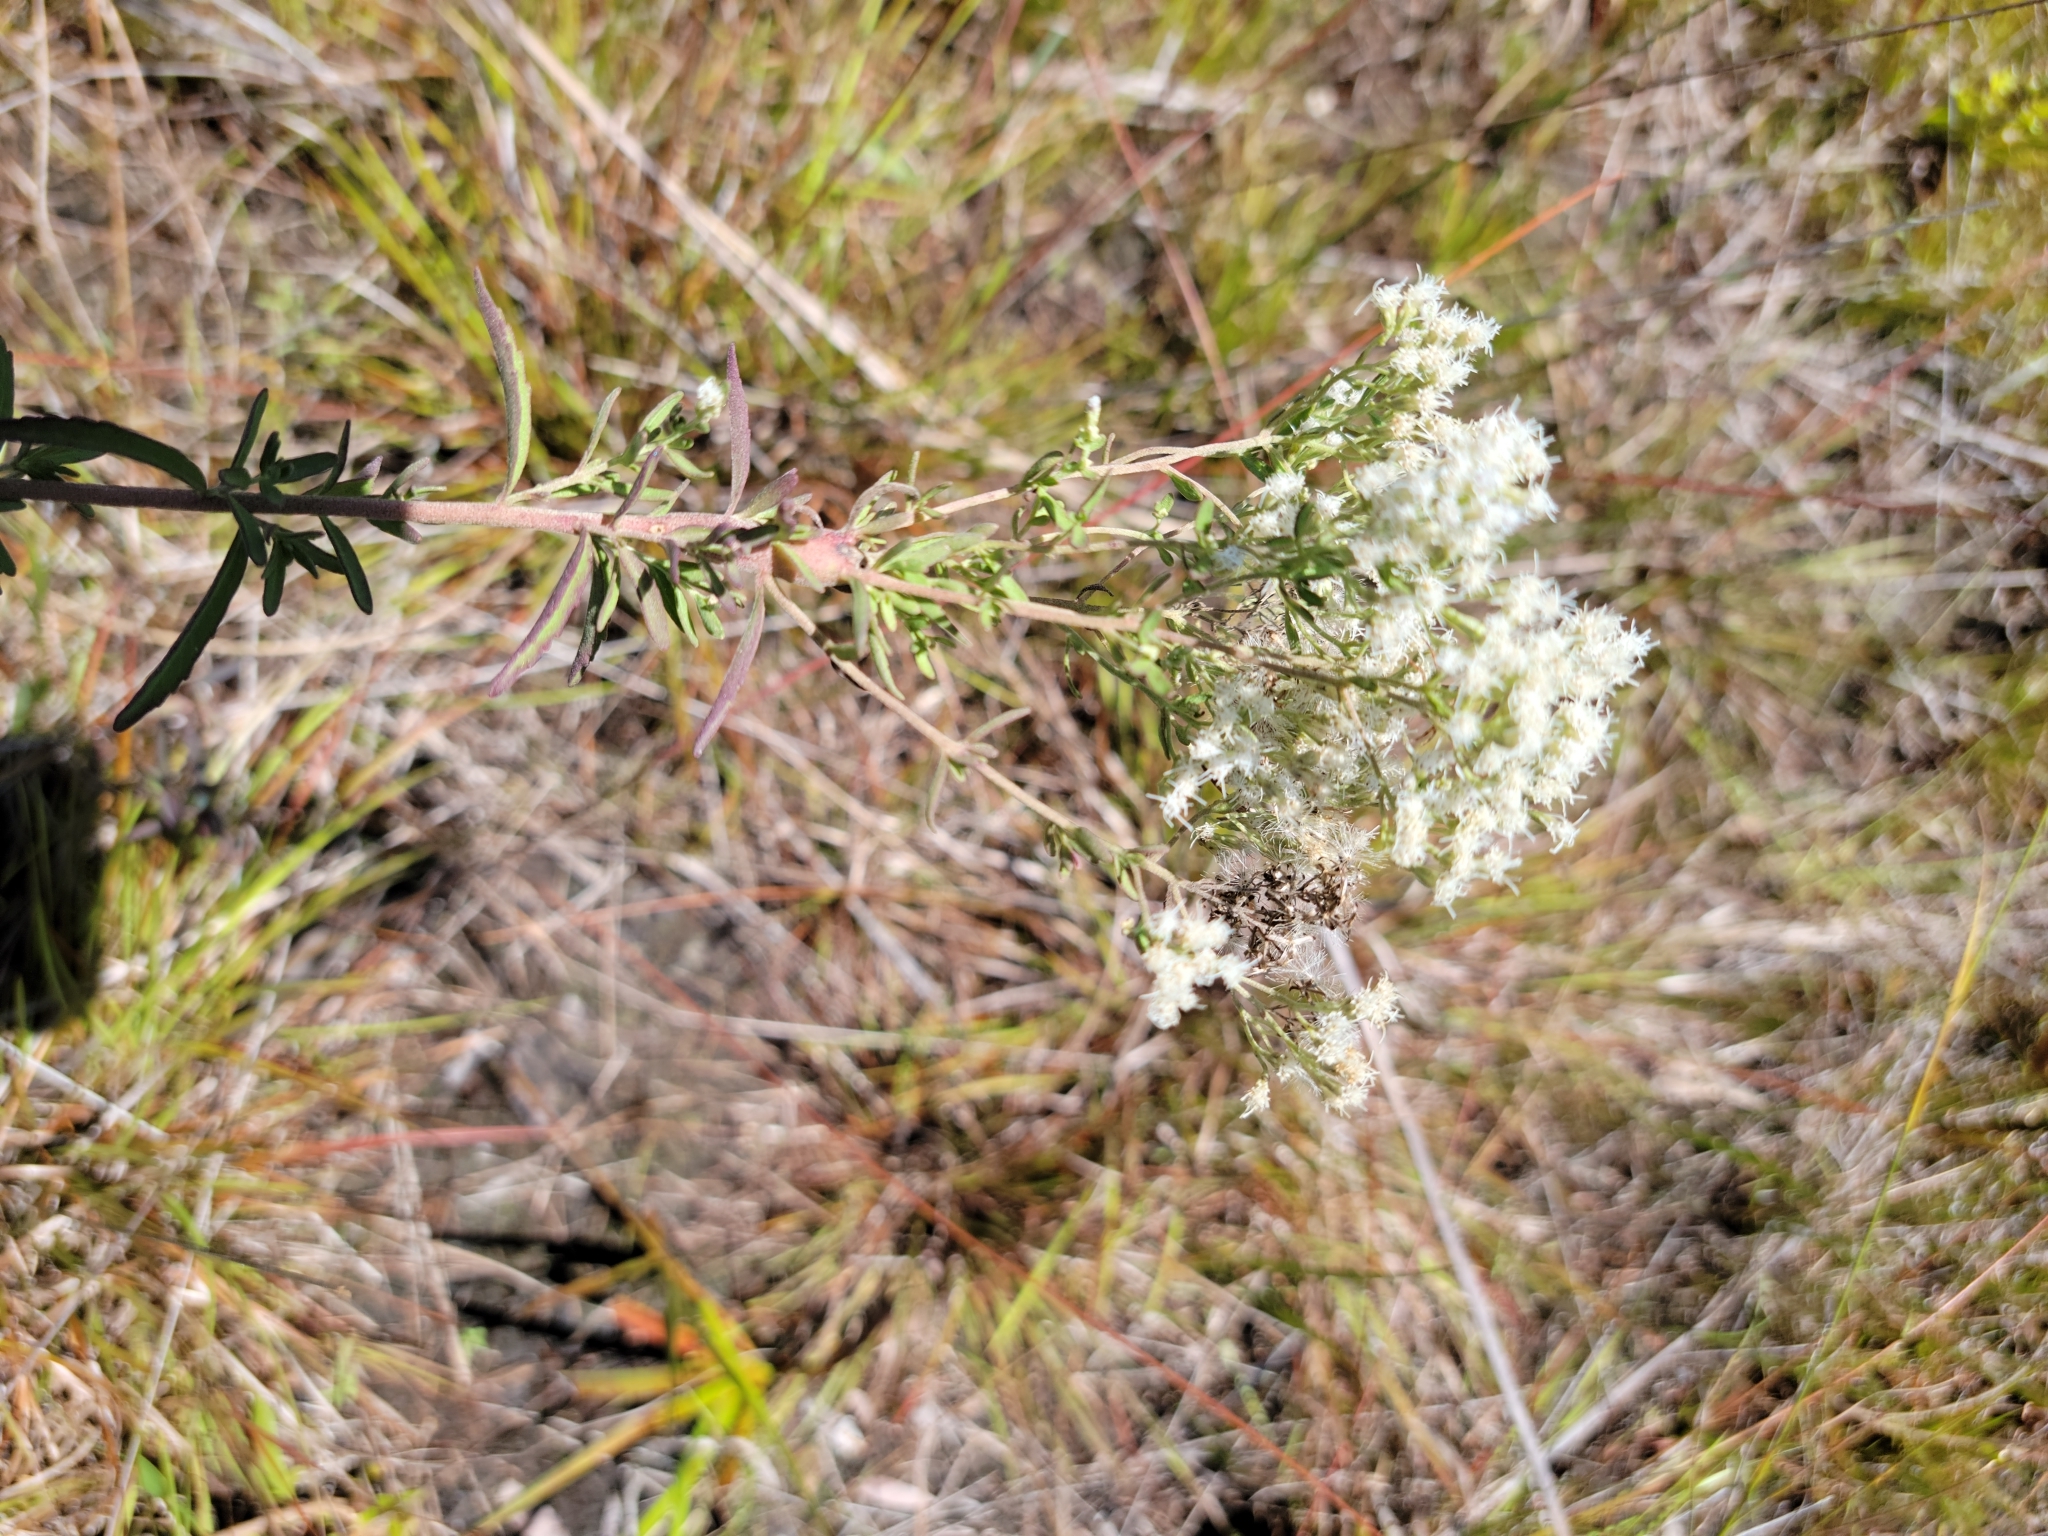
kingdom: Plantae
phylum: Tracheophyta
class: Magnoliopsida
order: Asterales
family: Asteraceae
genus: Eupatorium
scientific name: Eupatorium mohrii
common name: Mohr's thoroughwort
